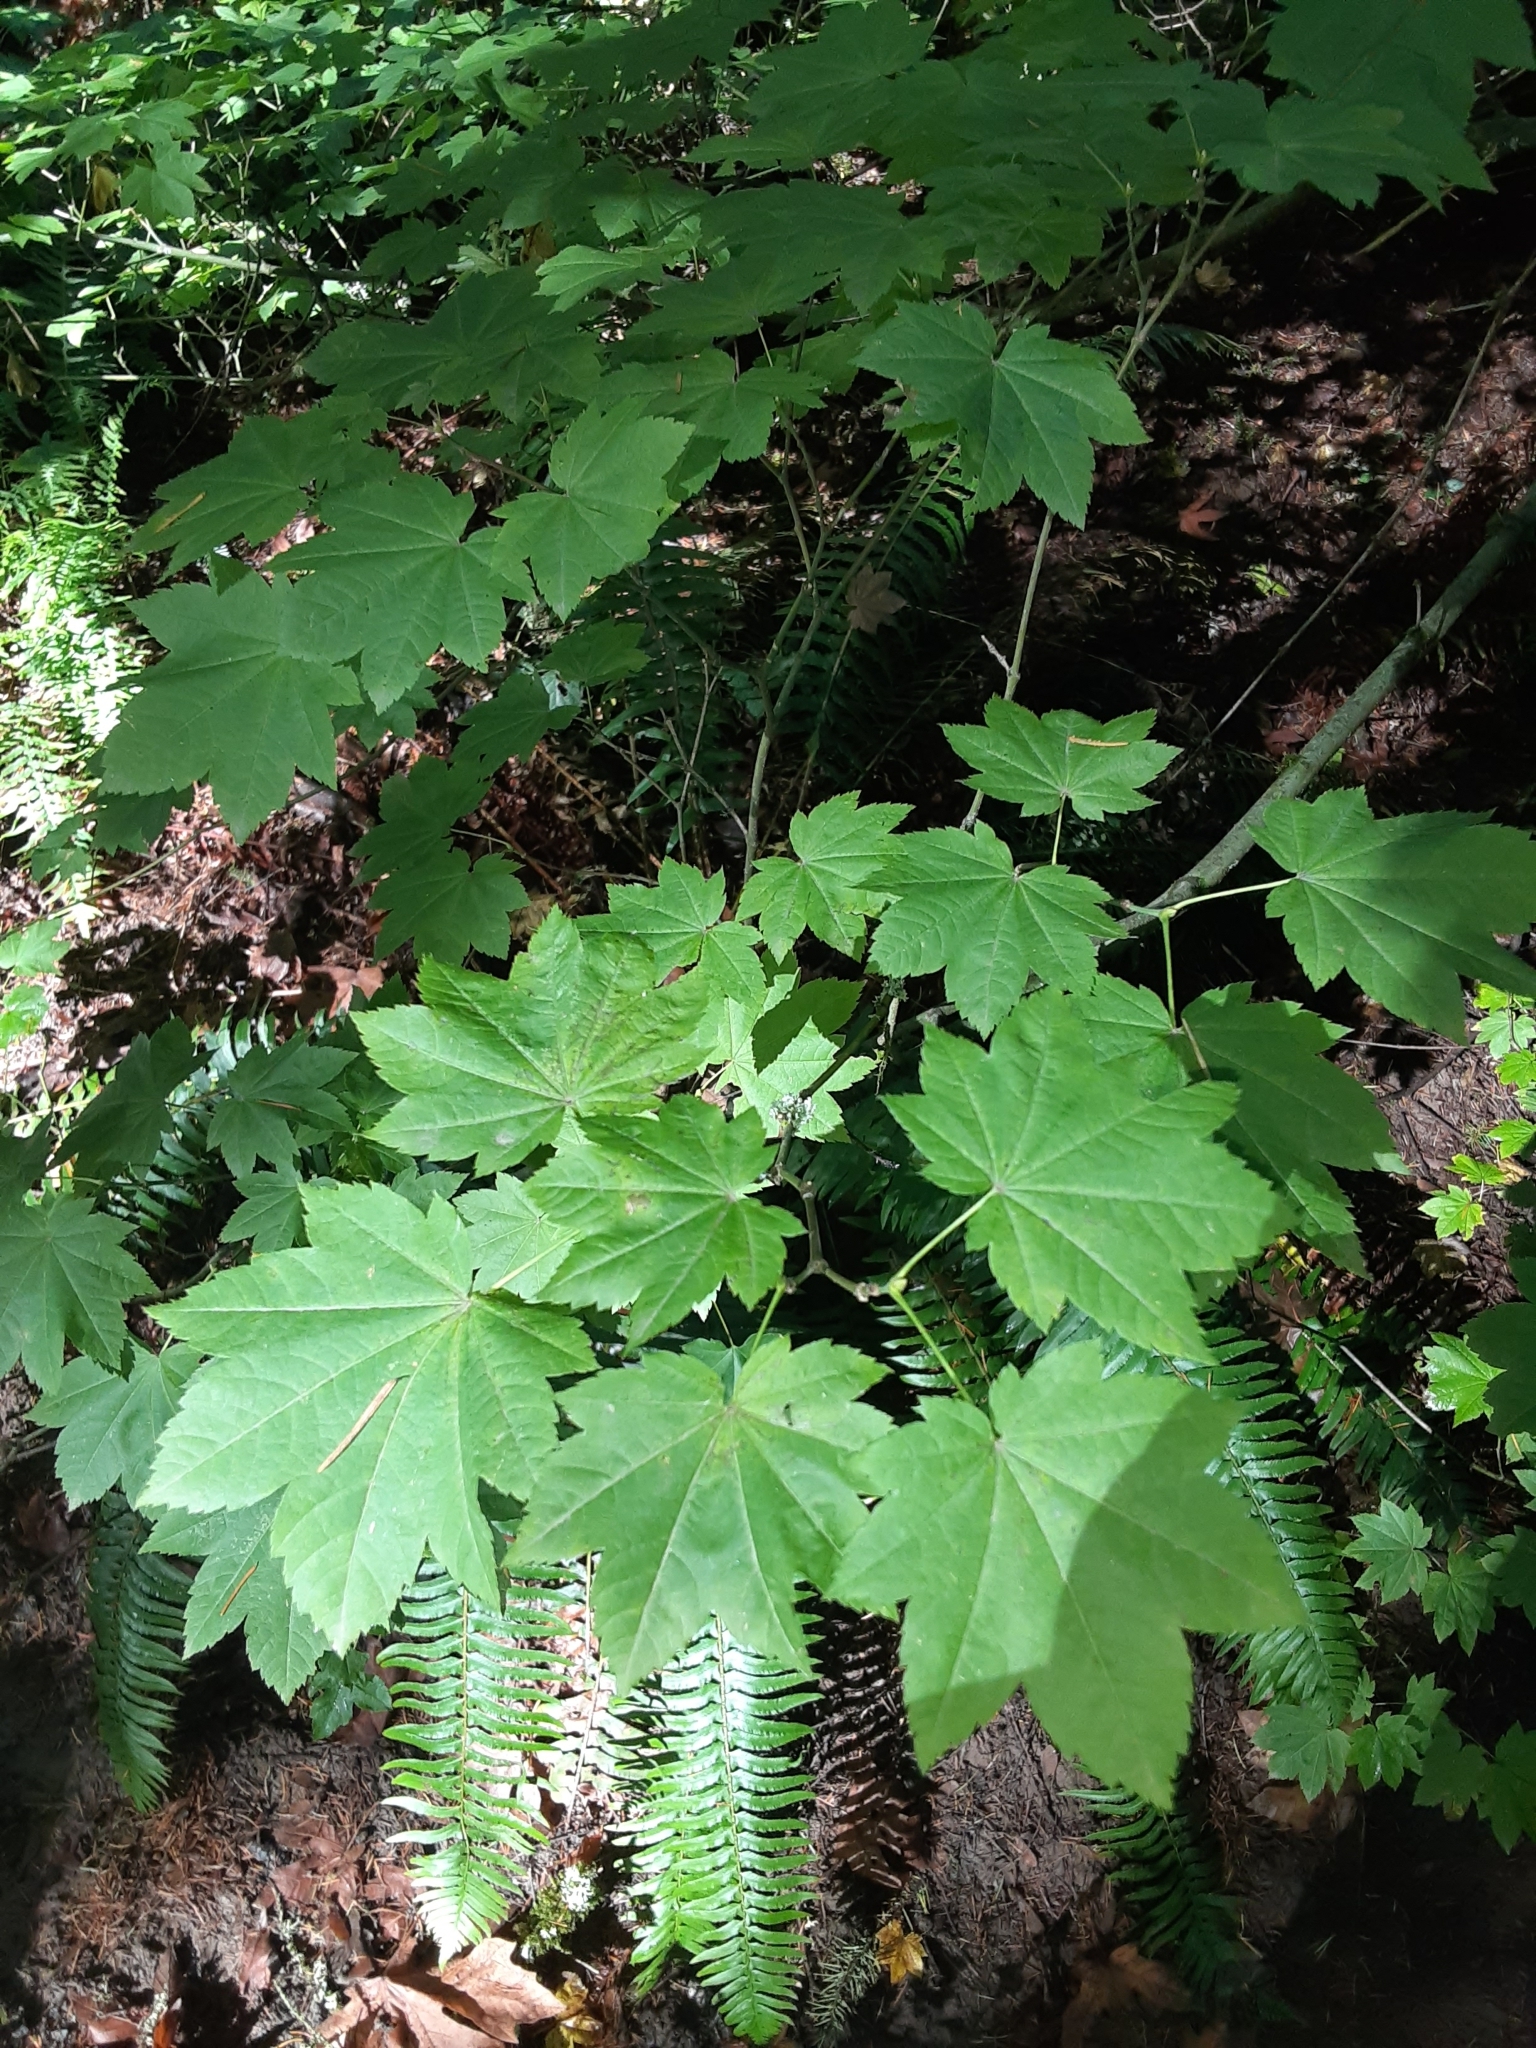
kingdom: Plantae
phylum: Tracheophyta
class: Magnoliopsida
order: Sapindales
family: Sapindaceae
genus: Acer
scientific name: Acer circinatum
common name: Vine maple
